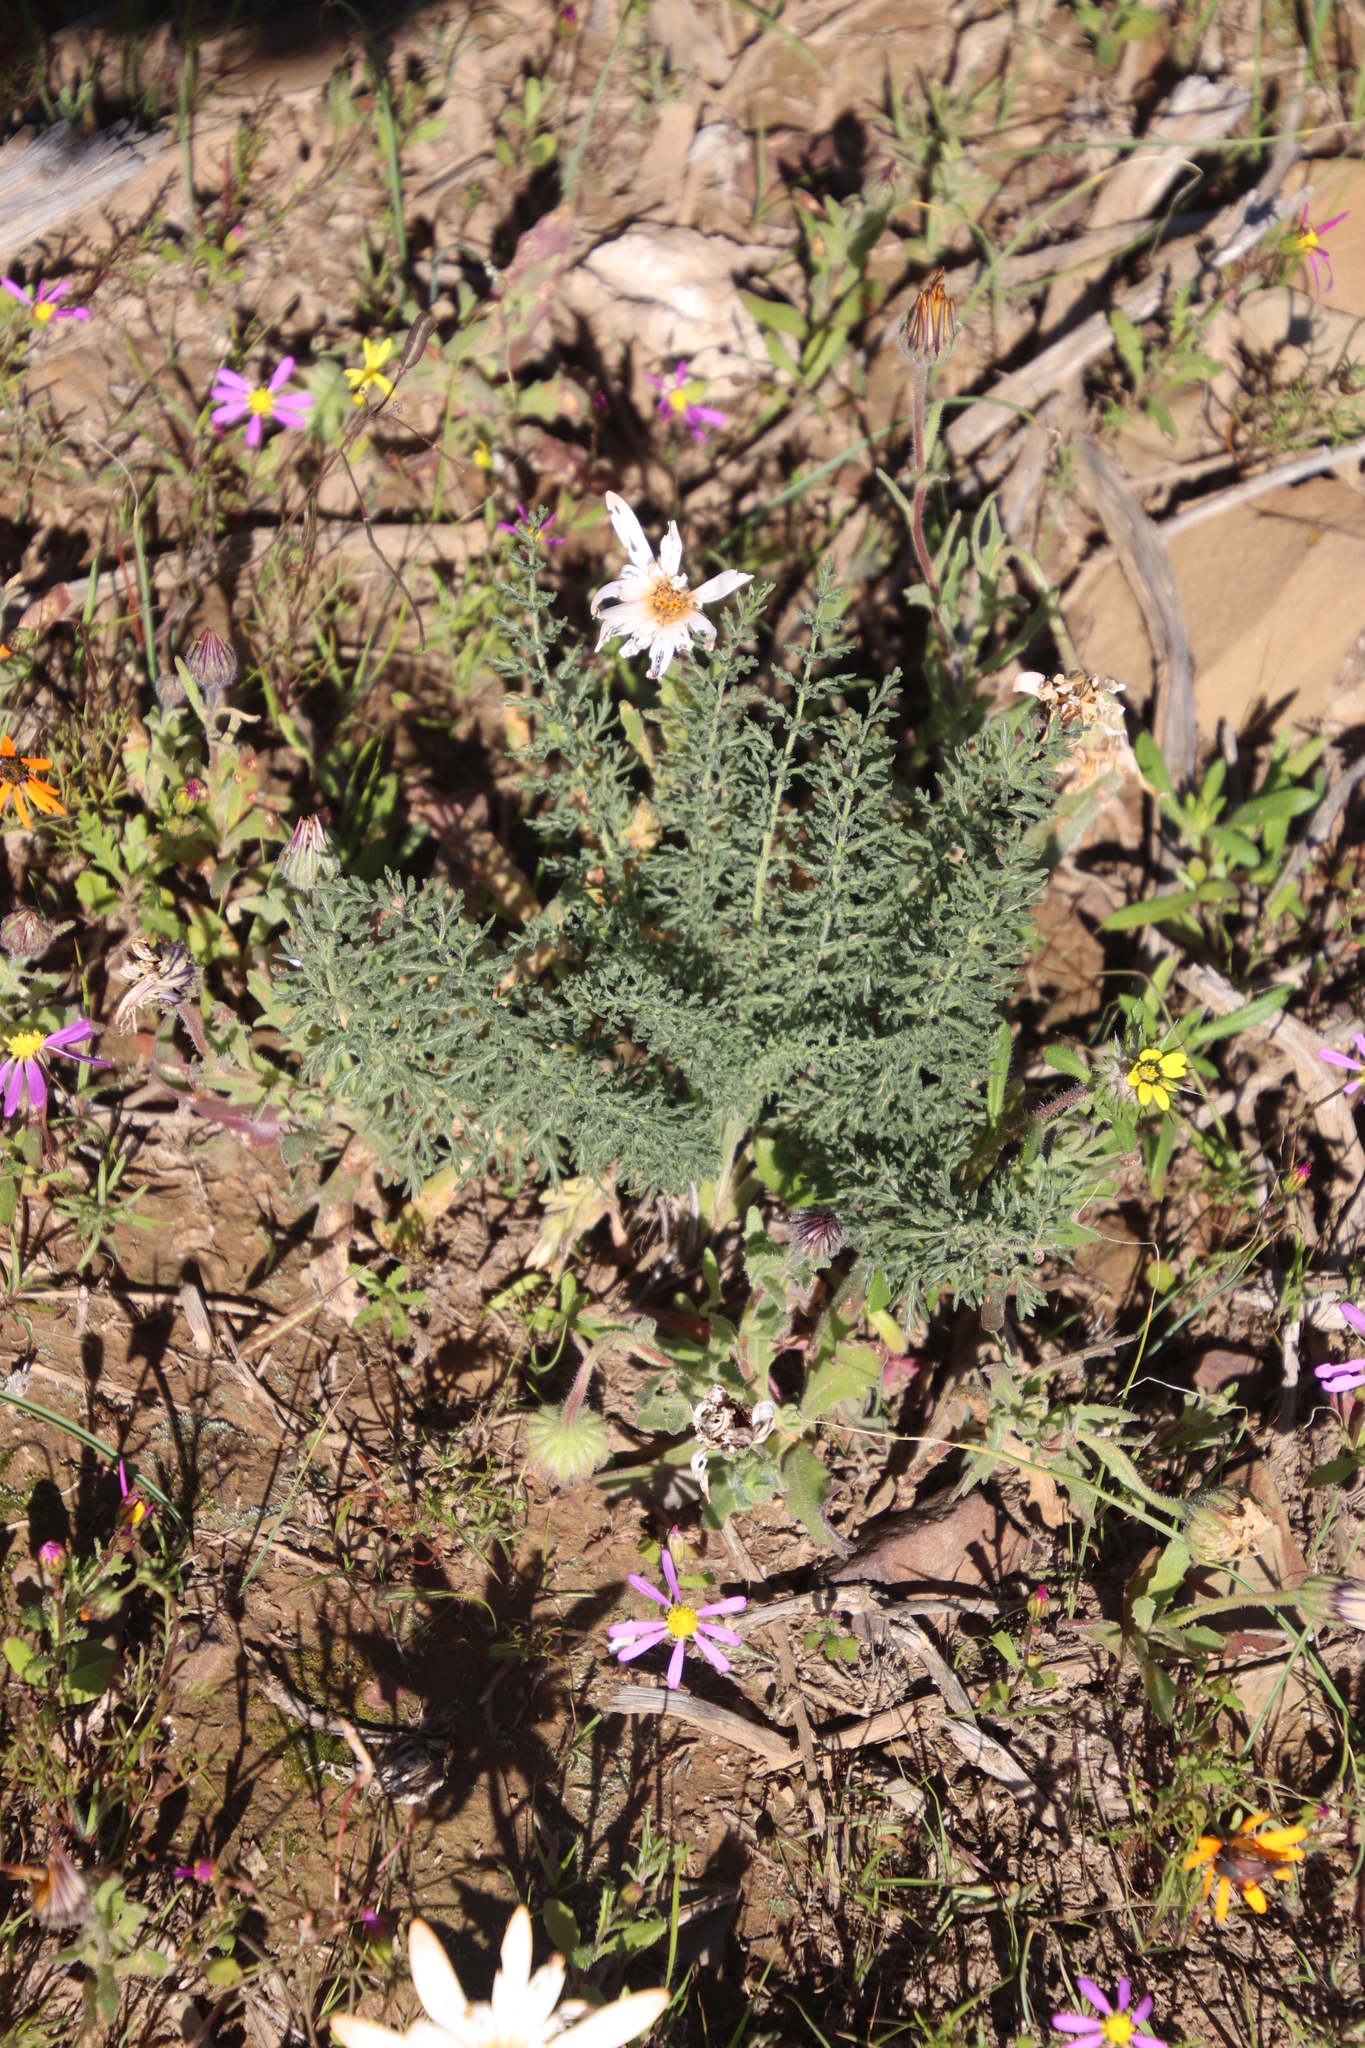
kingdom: Plantae
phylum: Tracheophyta
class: Magnoliopsida
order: Geraniales
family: Geraniaceae
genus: Pelargonium
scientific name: Pelargonium rapaceum
